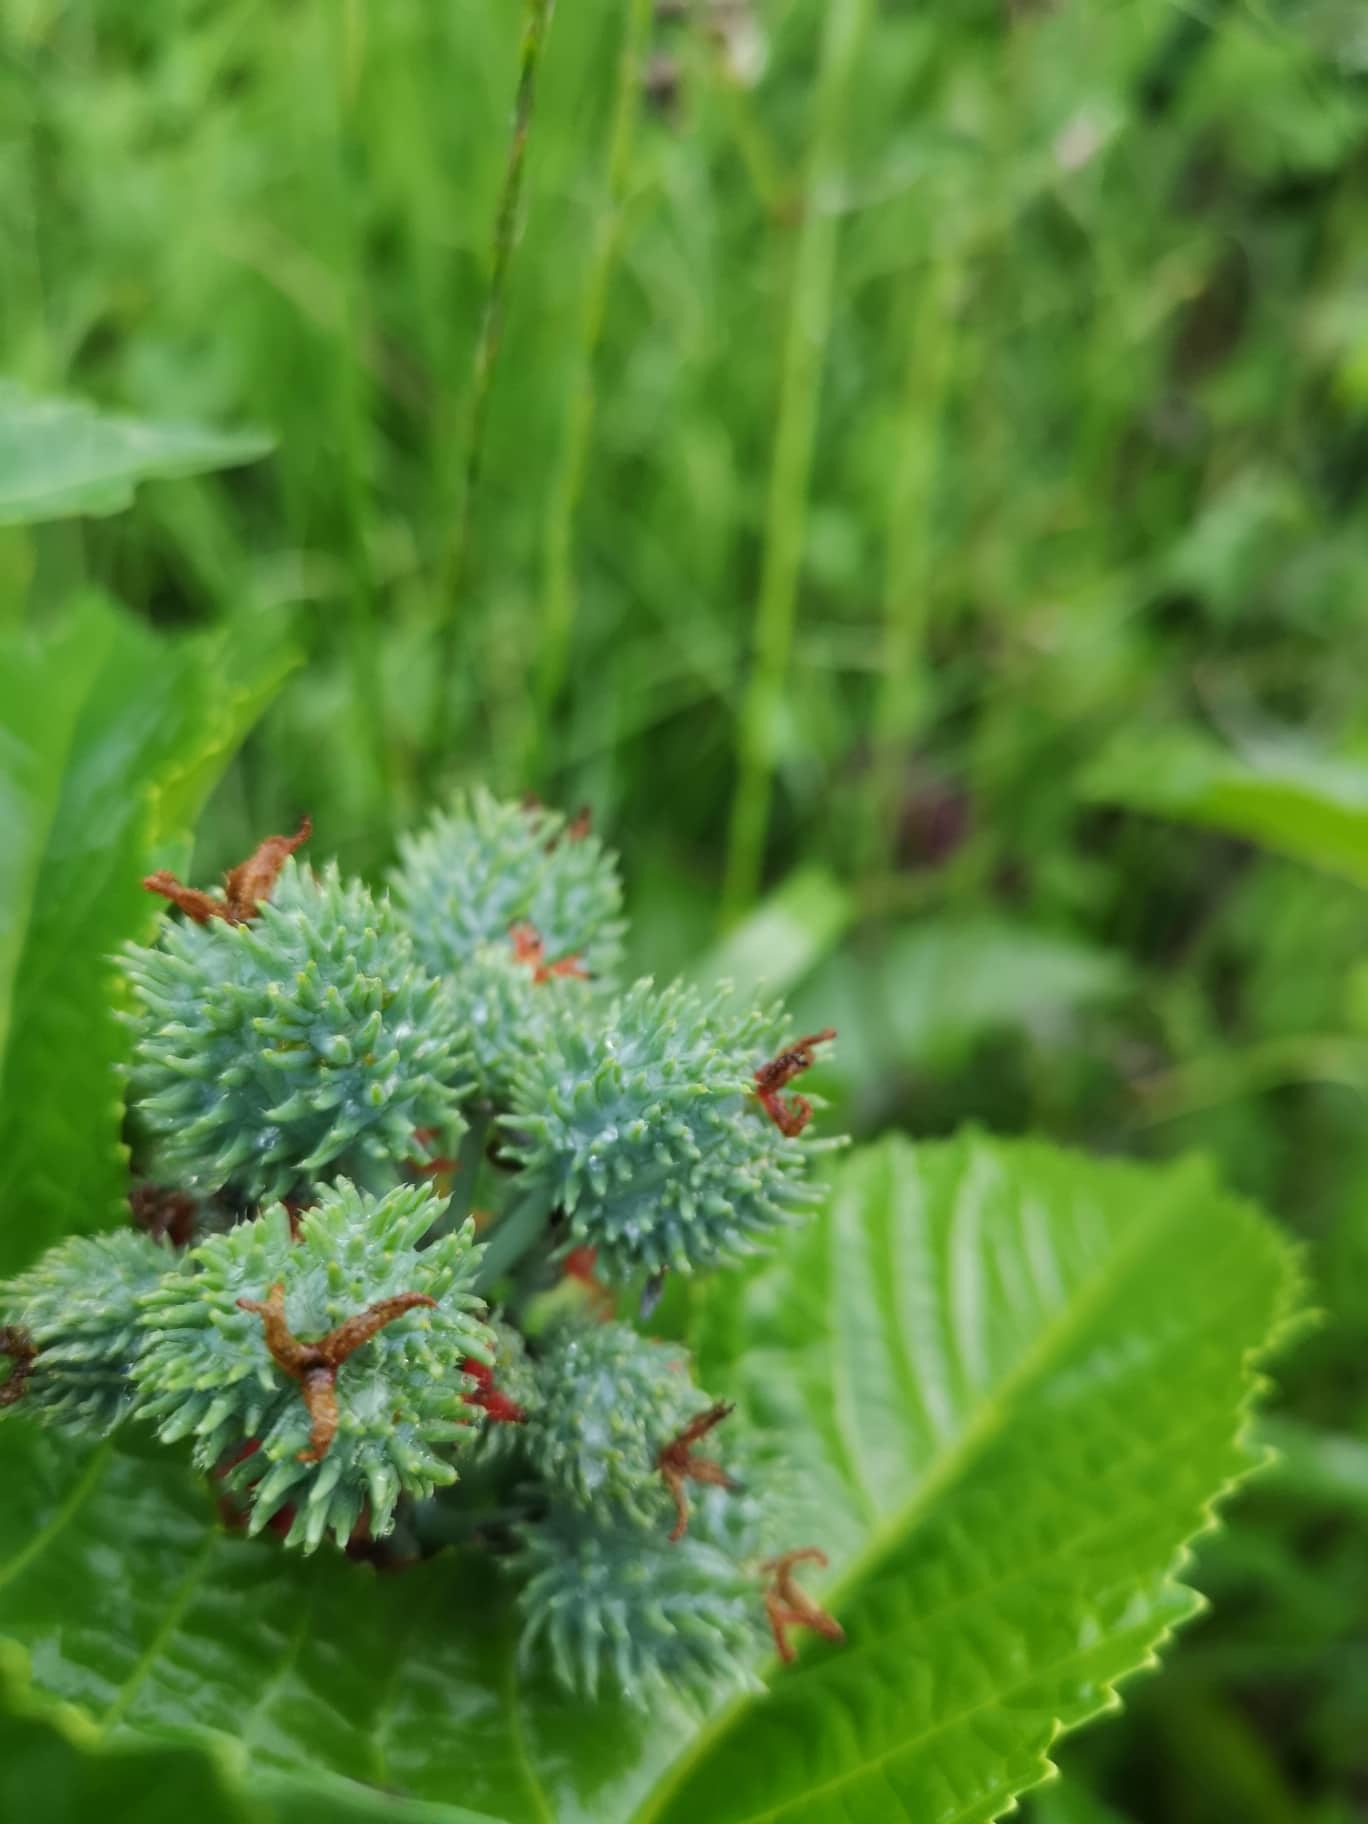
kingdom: Plantae
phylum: Tracheophyta
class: Magnoliopsida
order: Malpighiales
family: Euphorbiaceae
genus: Ricinus
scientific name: Ricinus communis
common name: Castor-oil-plant
